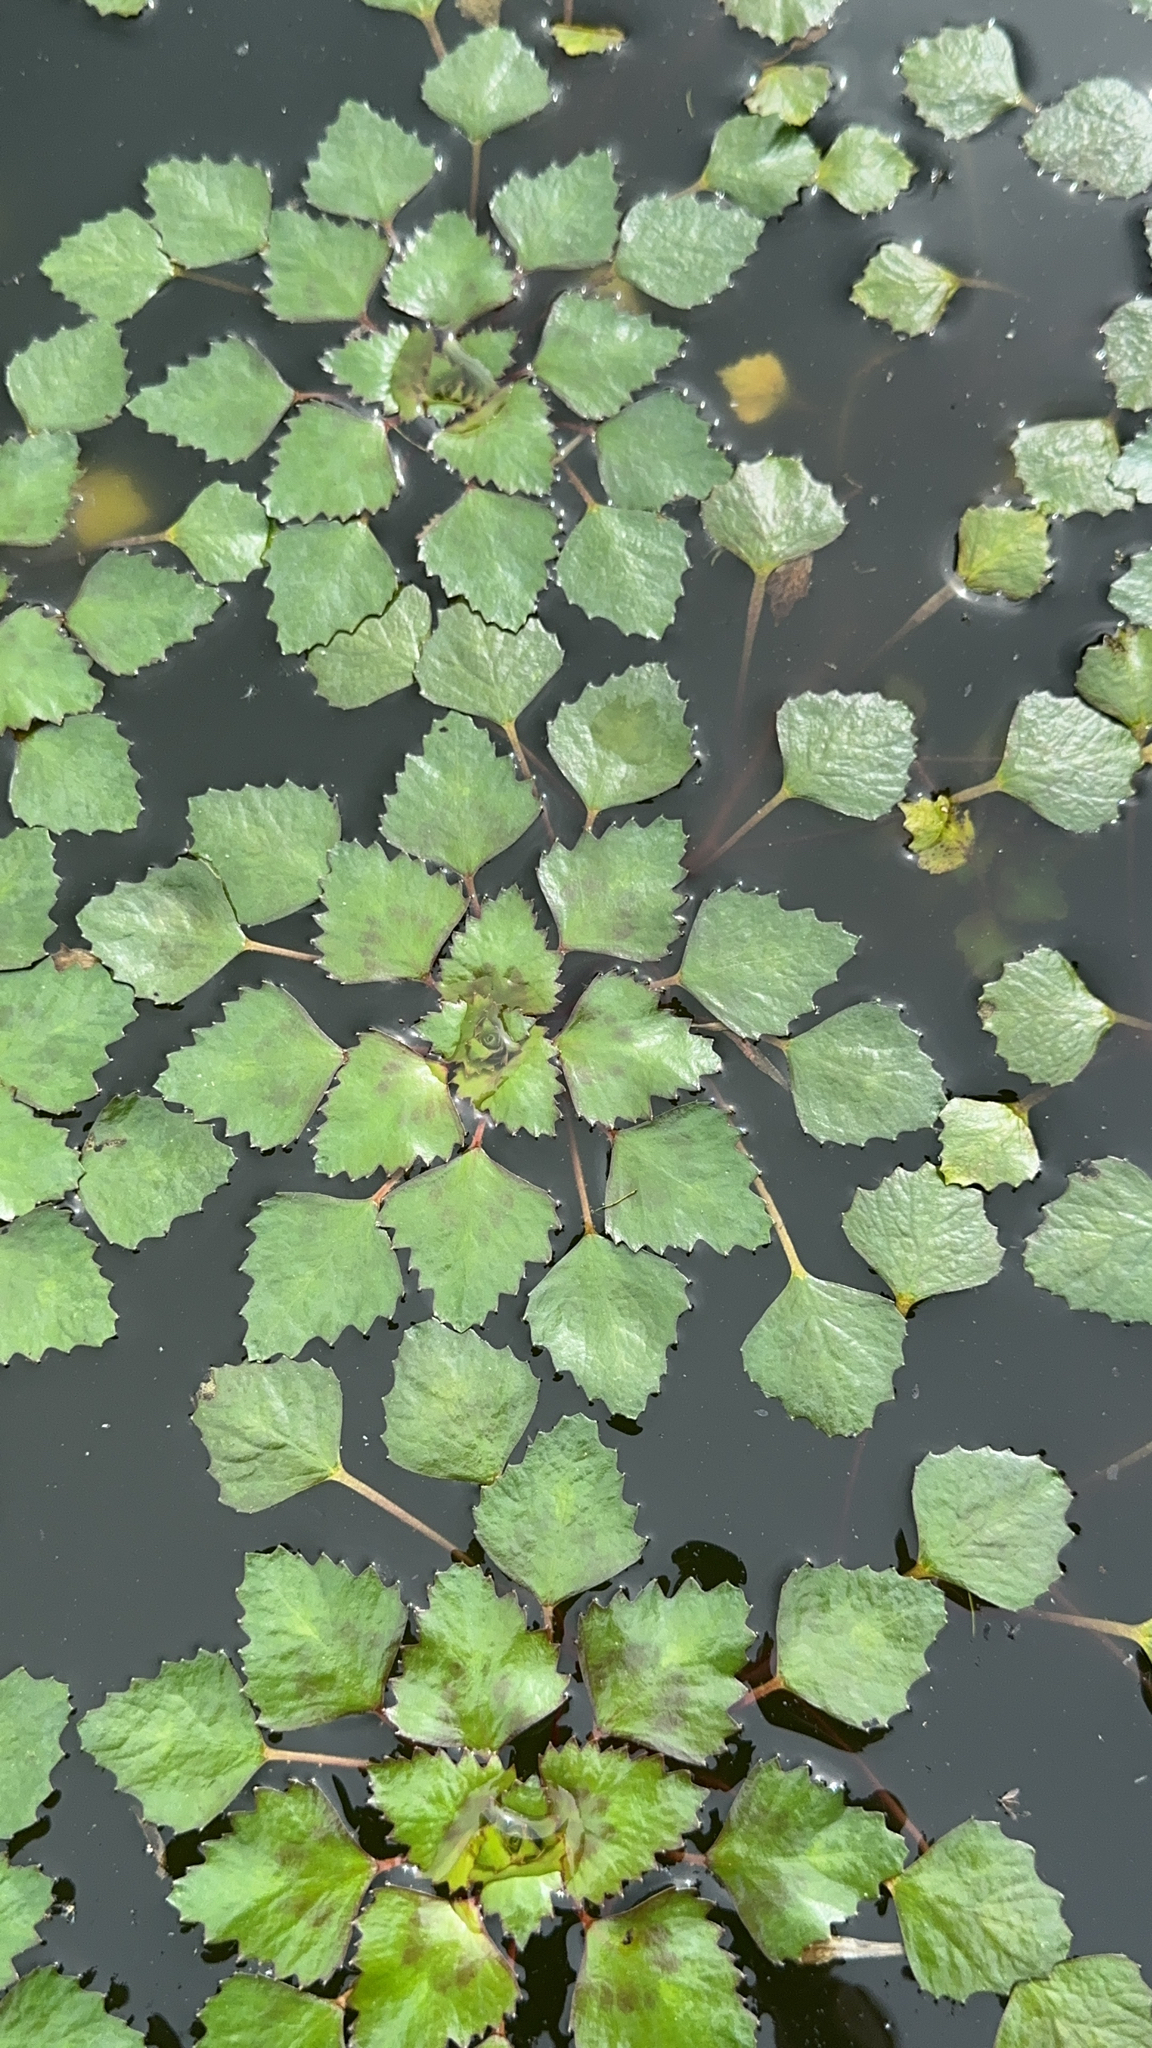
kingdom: Plantae
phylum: Tracheophyta
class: Magnoliopsida
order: Myrtales
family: Lythraceae
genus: Trapa
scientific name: Trapa natans
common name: Water chestnut
